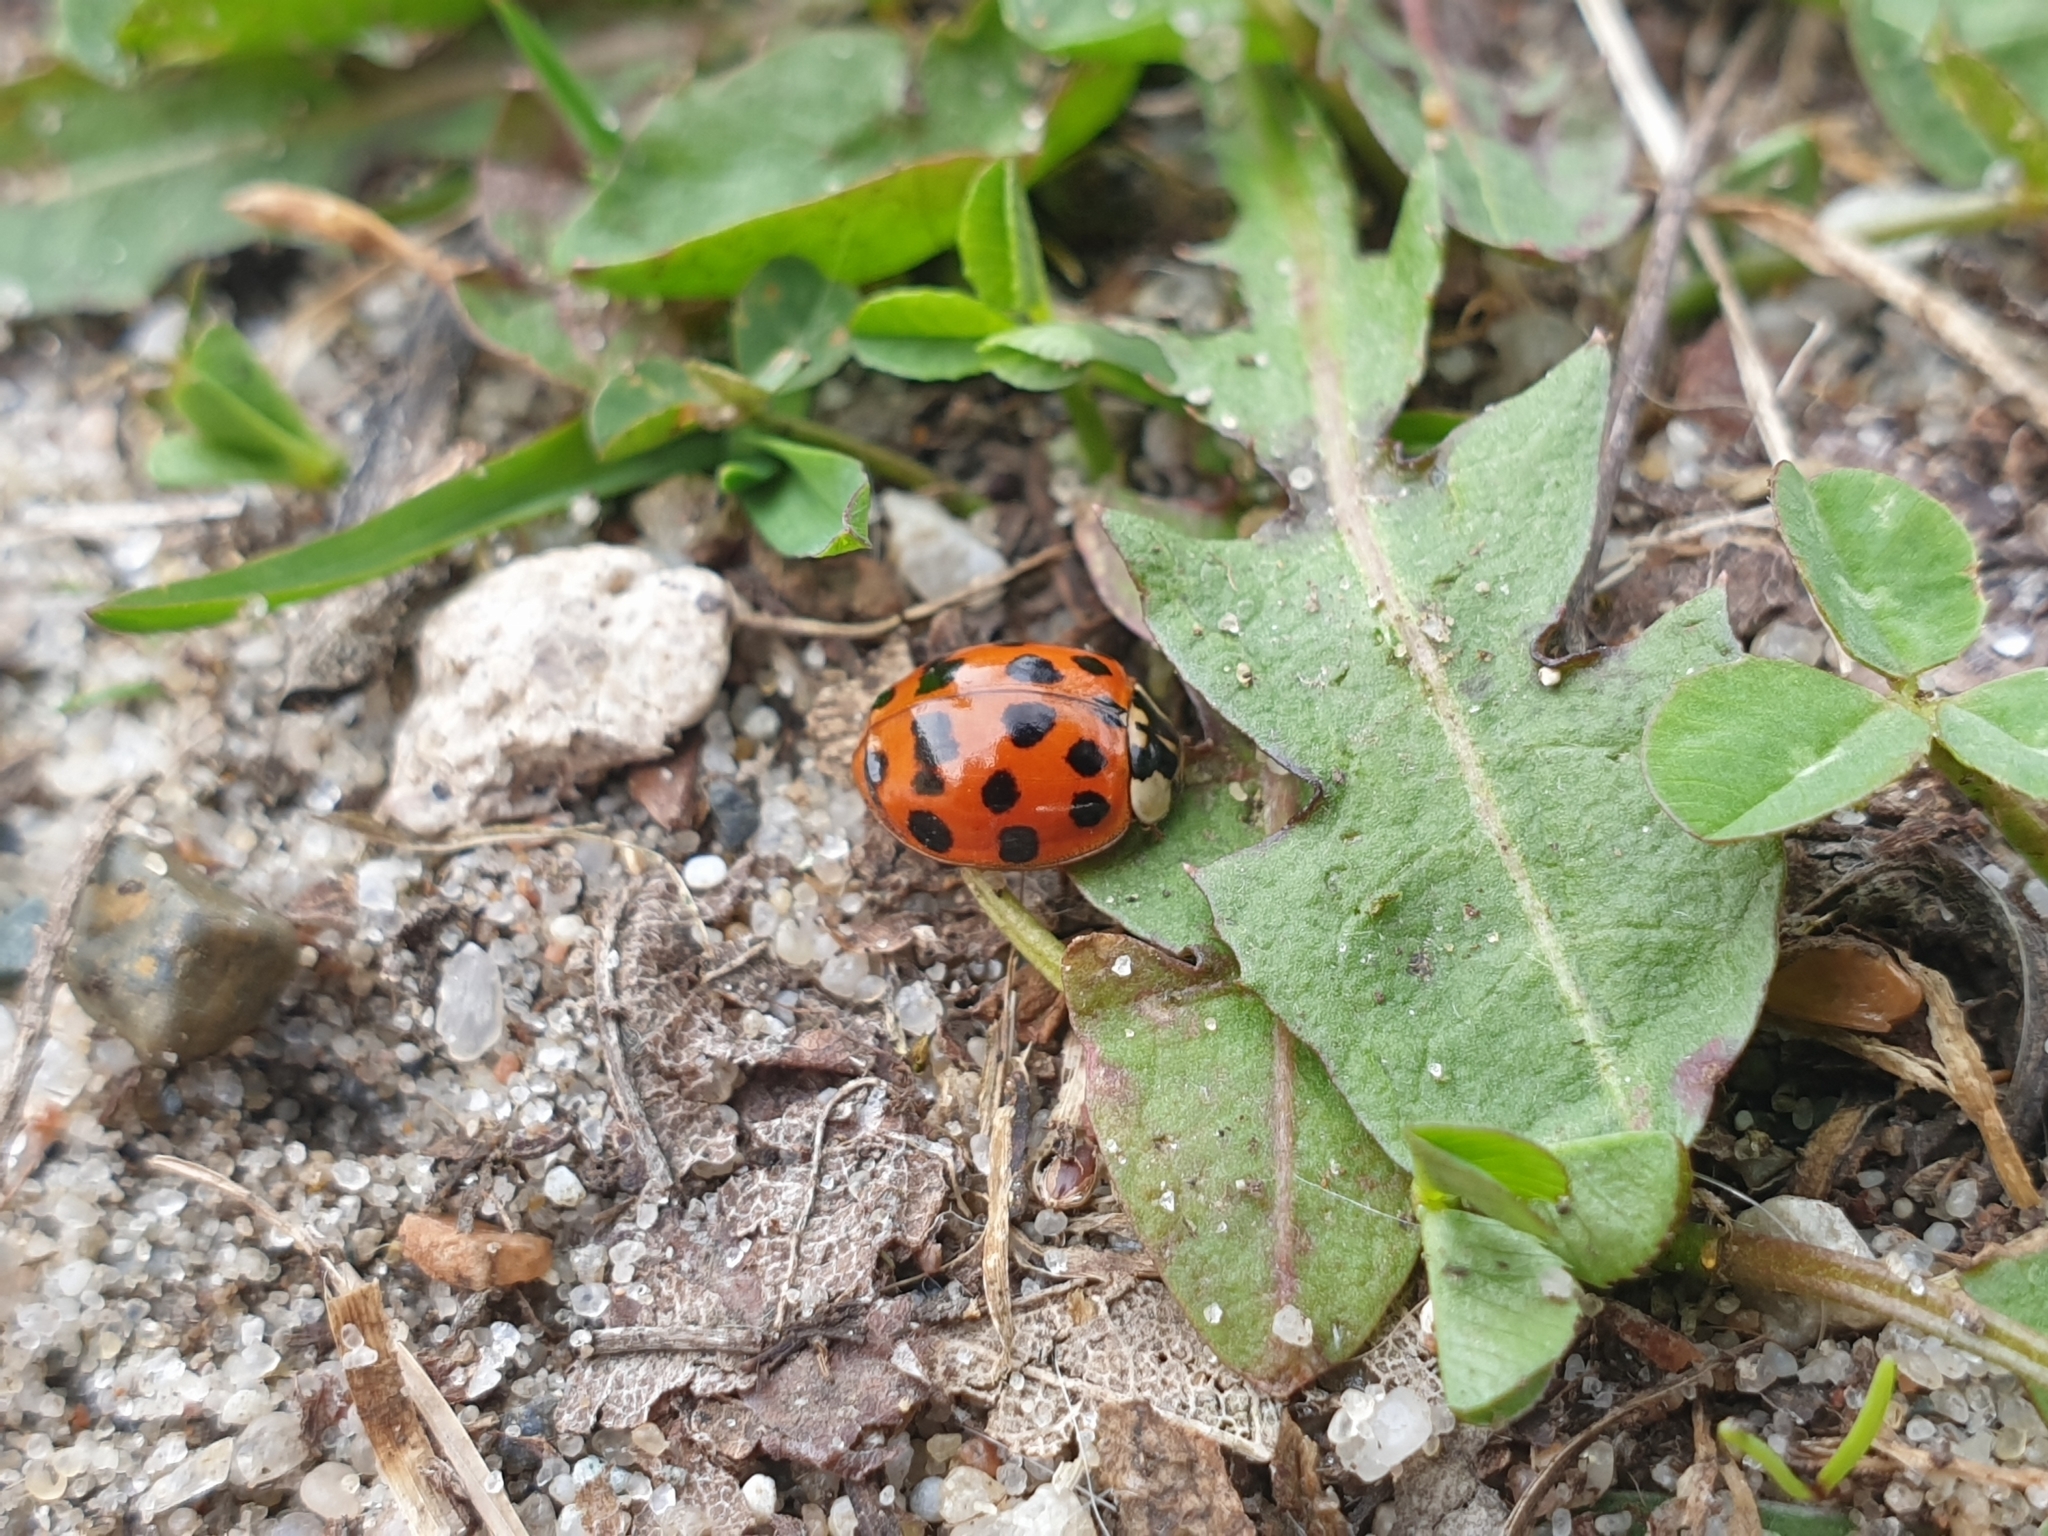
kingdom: Animalia
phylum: Arthropoda
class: Insecta
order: Coleoptera
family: Coccinellidae
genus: Harmonia
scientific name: Harmonia axyridis
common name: Harlequin ladybird
